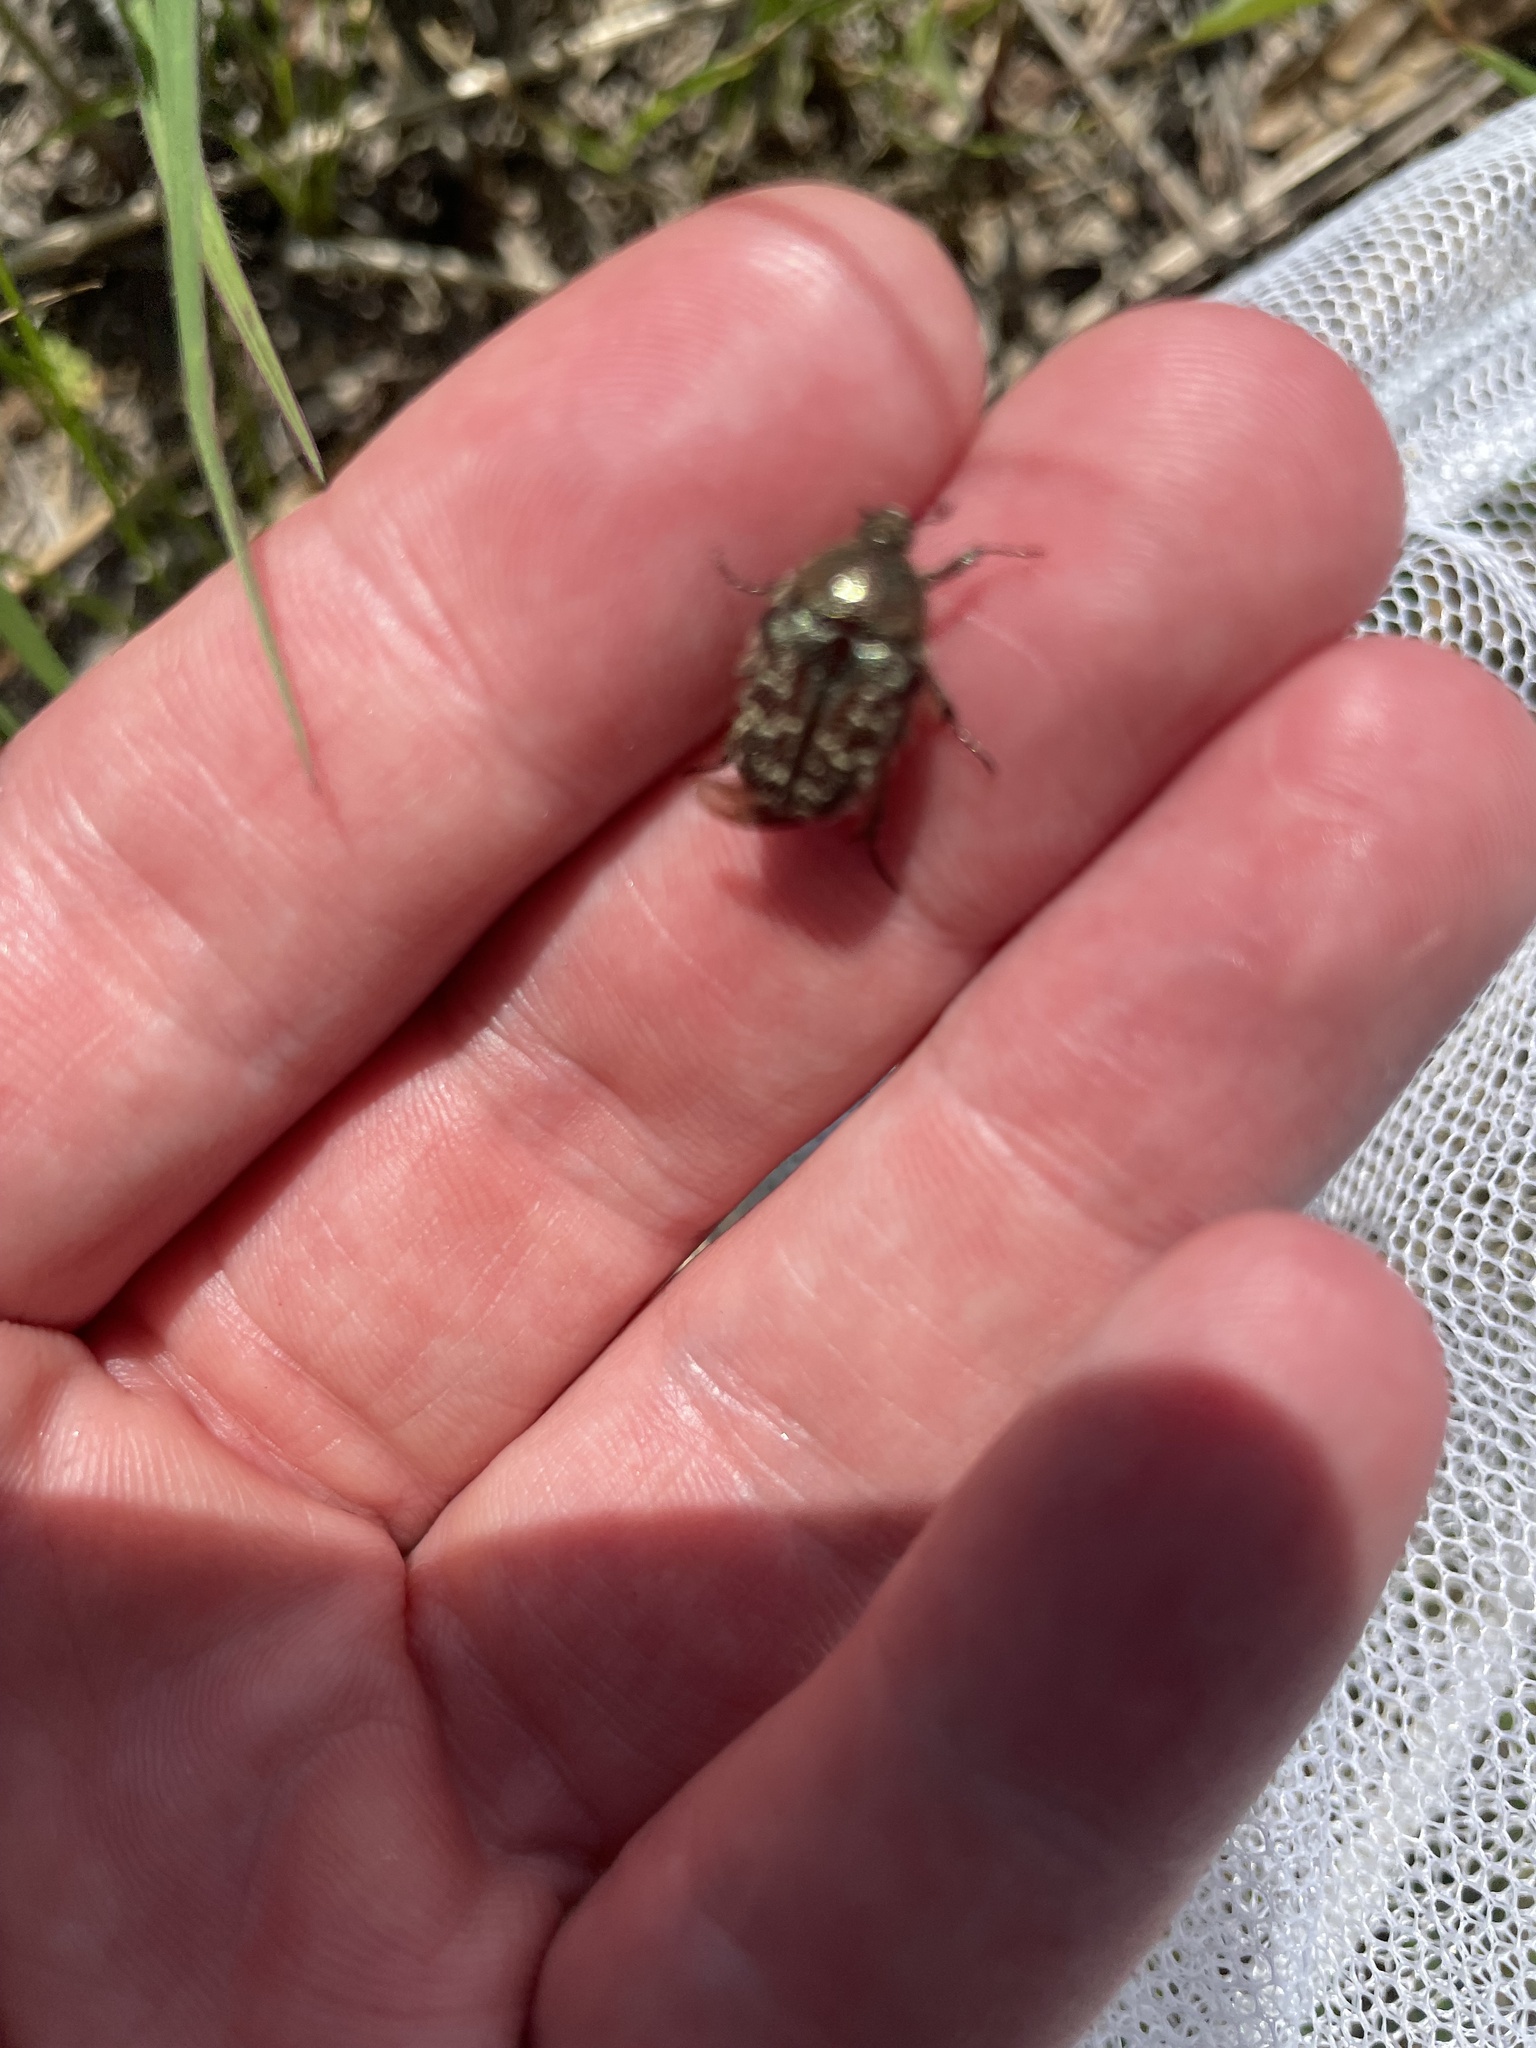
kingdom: Animalia
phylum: Arthropoda
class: Insecta
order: Coleoptera
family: Scarabaeidae
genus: Euphoria
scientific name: Euphoria sepulcralis
